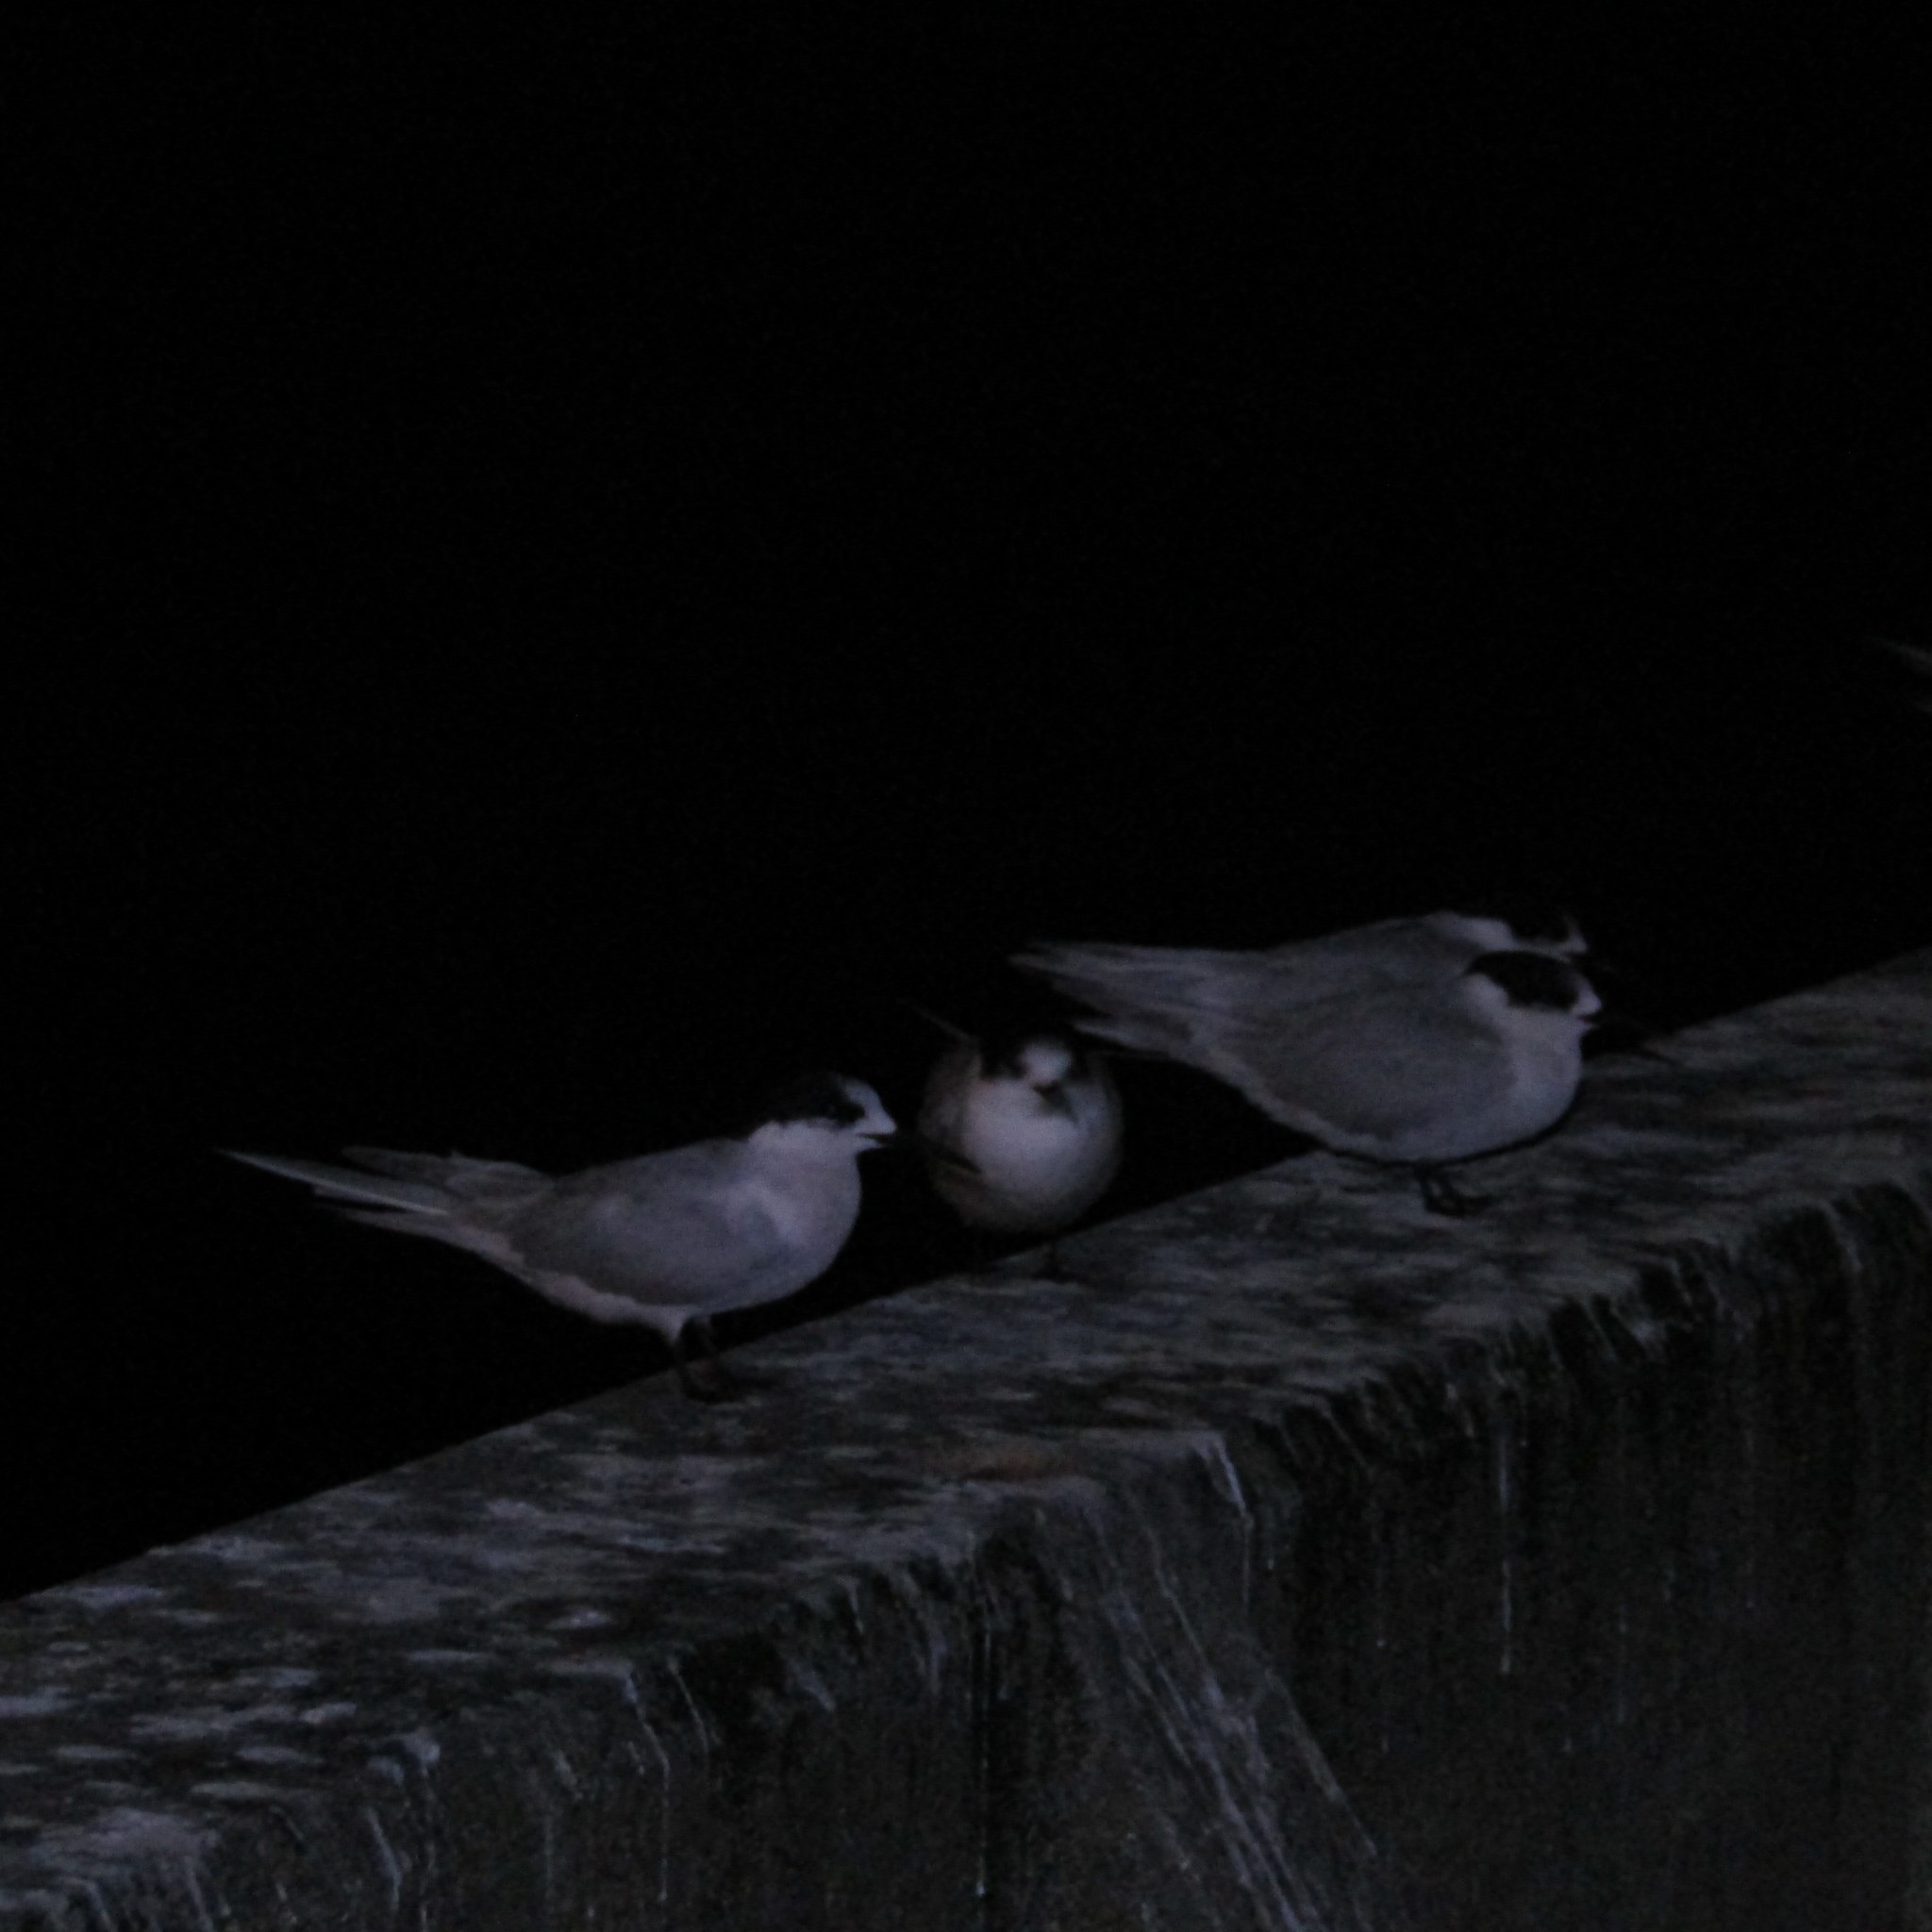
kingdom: Animalia
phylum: Chordata
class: Aves
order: Charadriiformes
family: Laridae
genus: Sterna
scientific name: Sterna striata
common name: White-fronted tern
